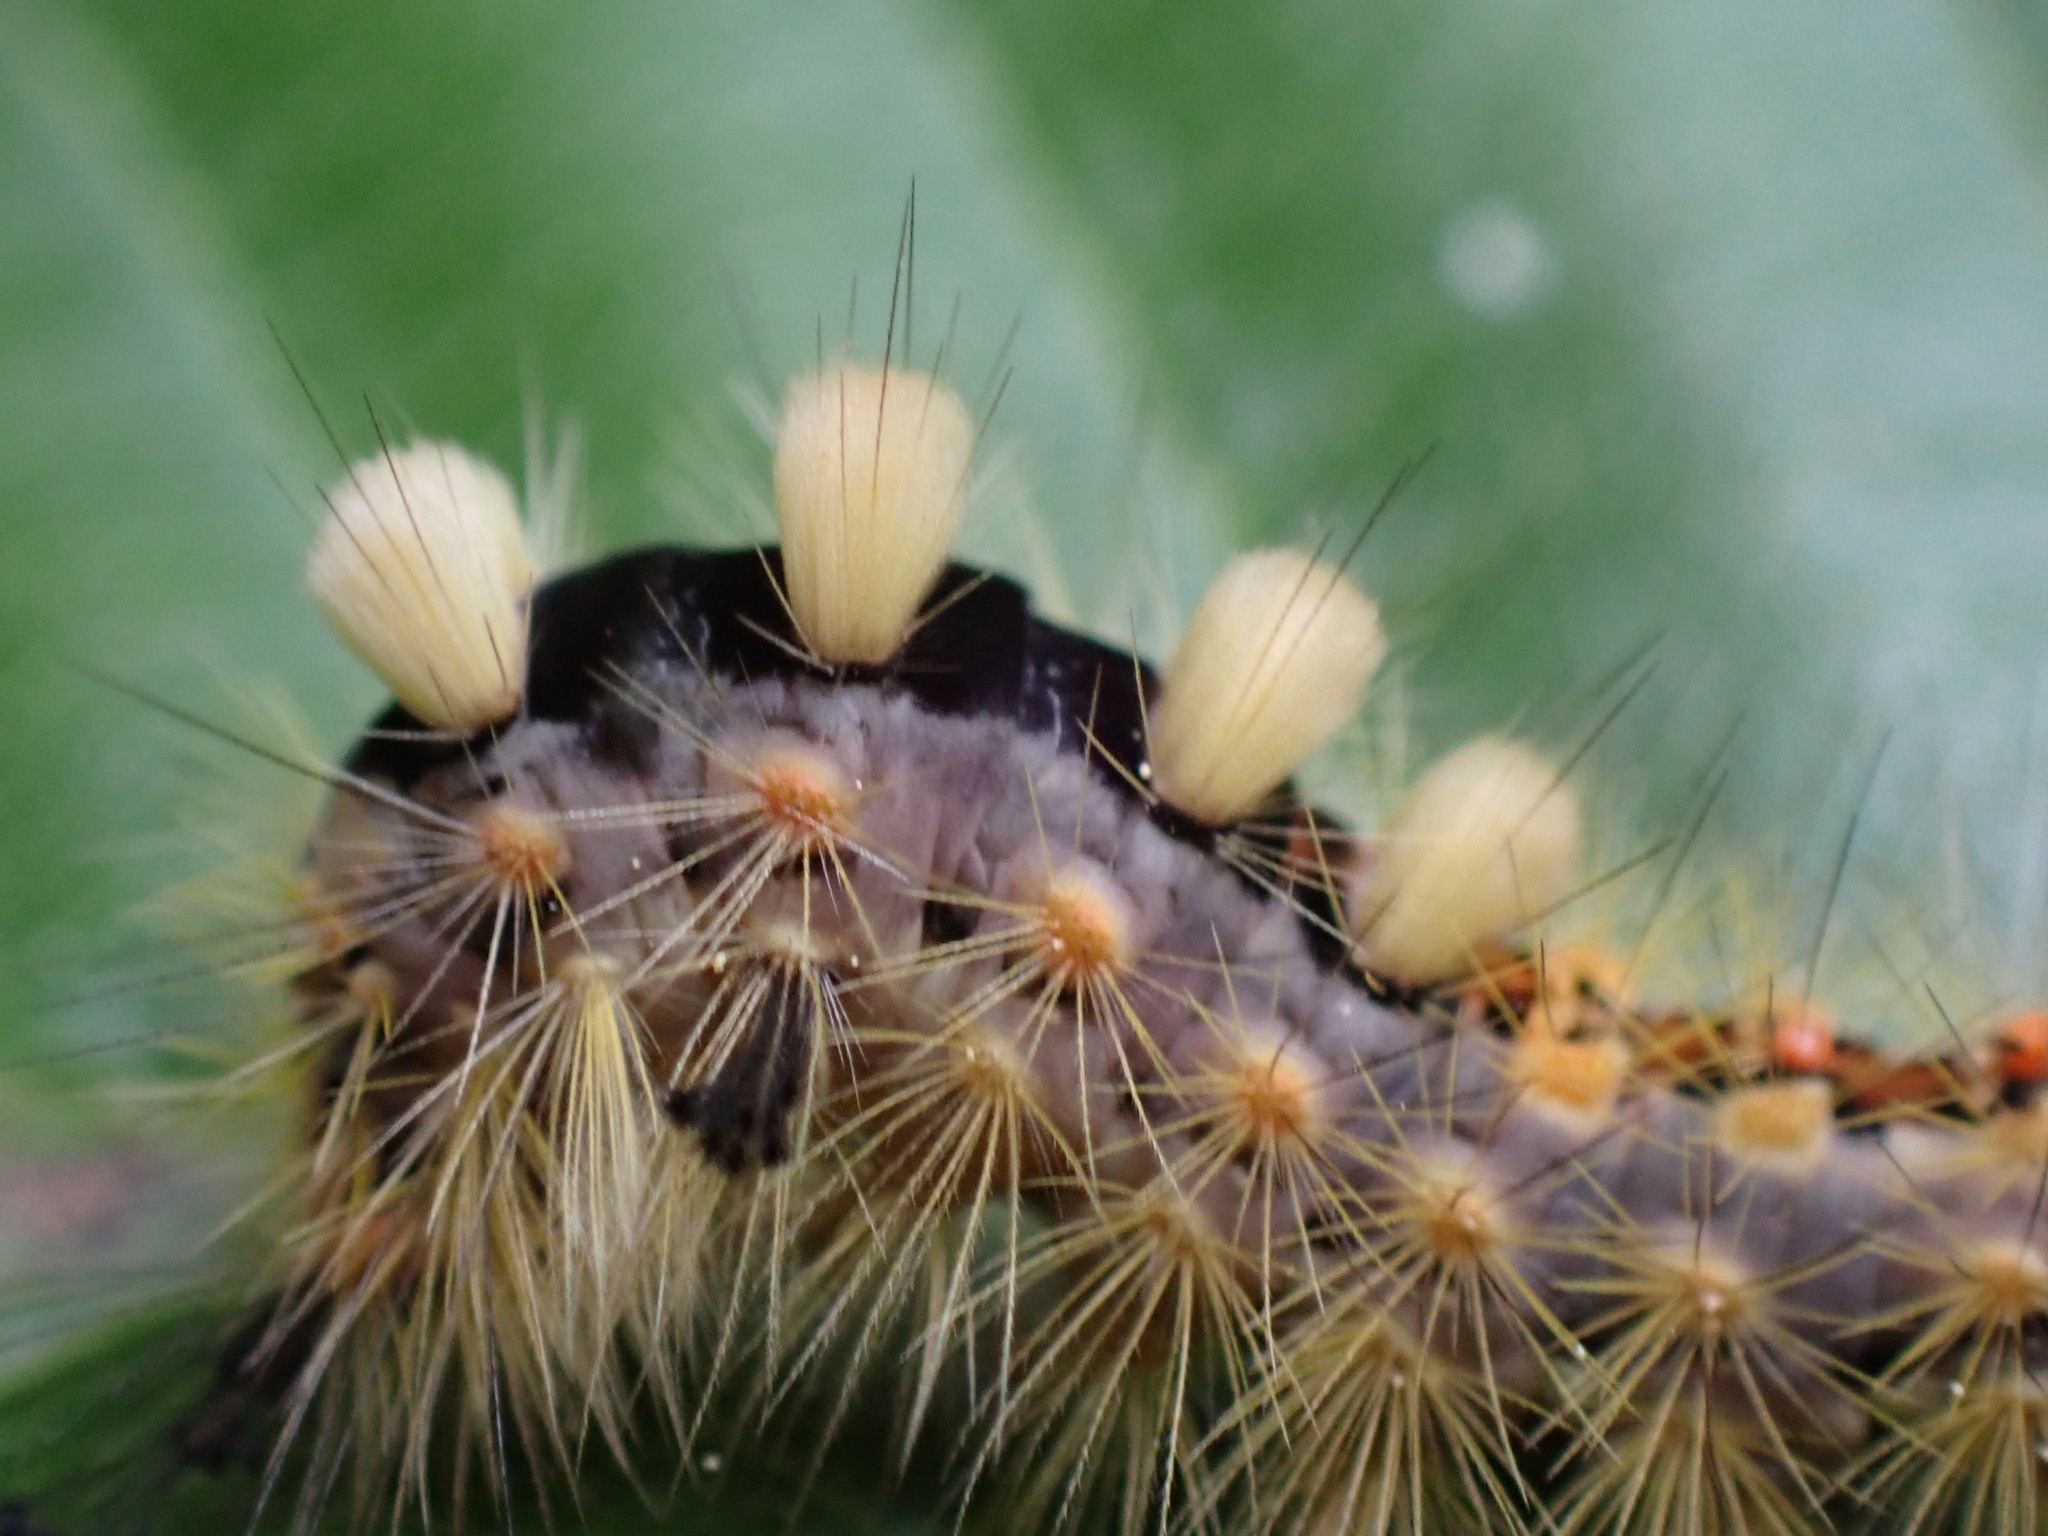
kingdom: Animalia
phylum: Arthropoda
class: Insecta
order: Lepidoptera
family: Erebidae
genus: Orgyia
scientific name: Orgyia antiqua
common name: Vapourer
